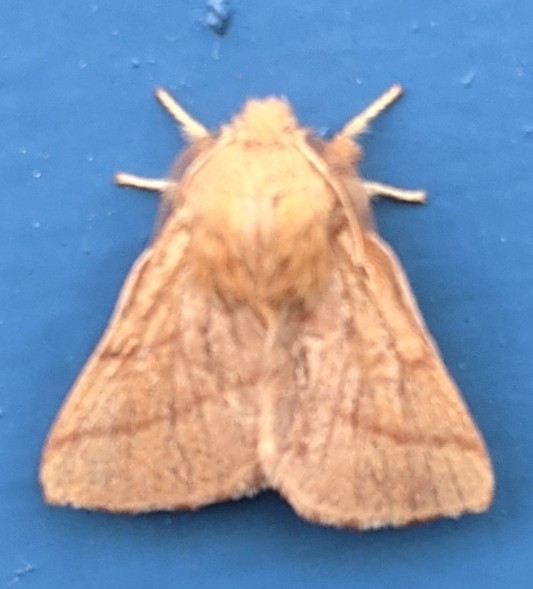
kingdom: Animalia
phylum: Arthropoda
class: Insecta
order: Lepidoptera
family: Lasiocampidae
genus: Malacosoma
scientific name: Malacosoma disstria
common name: Forest tent caterpillar
